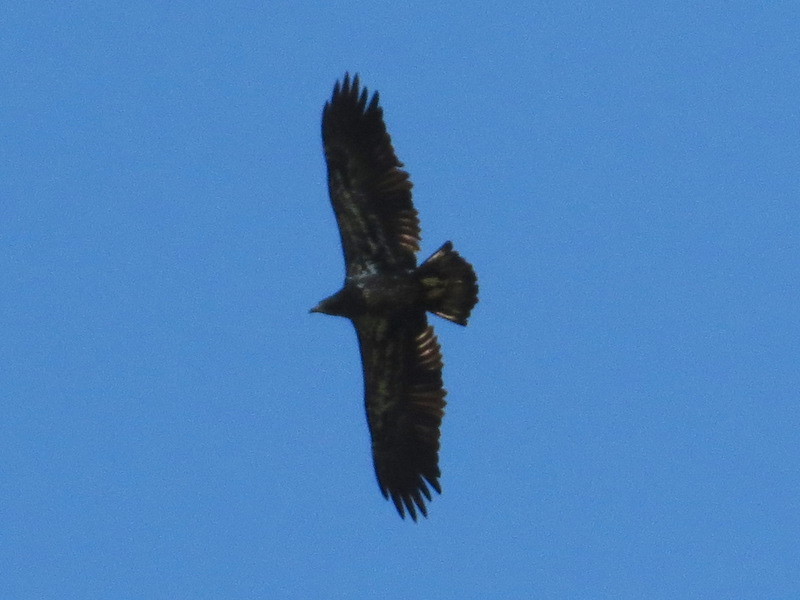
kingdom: Animalia
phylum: Chordata
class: Aves
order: Accipitriformes
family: Accipitridae
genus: Haliaeetus
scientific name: Haliaeetus leucocephalus
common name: Bald eagle
